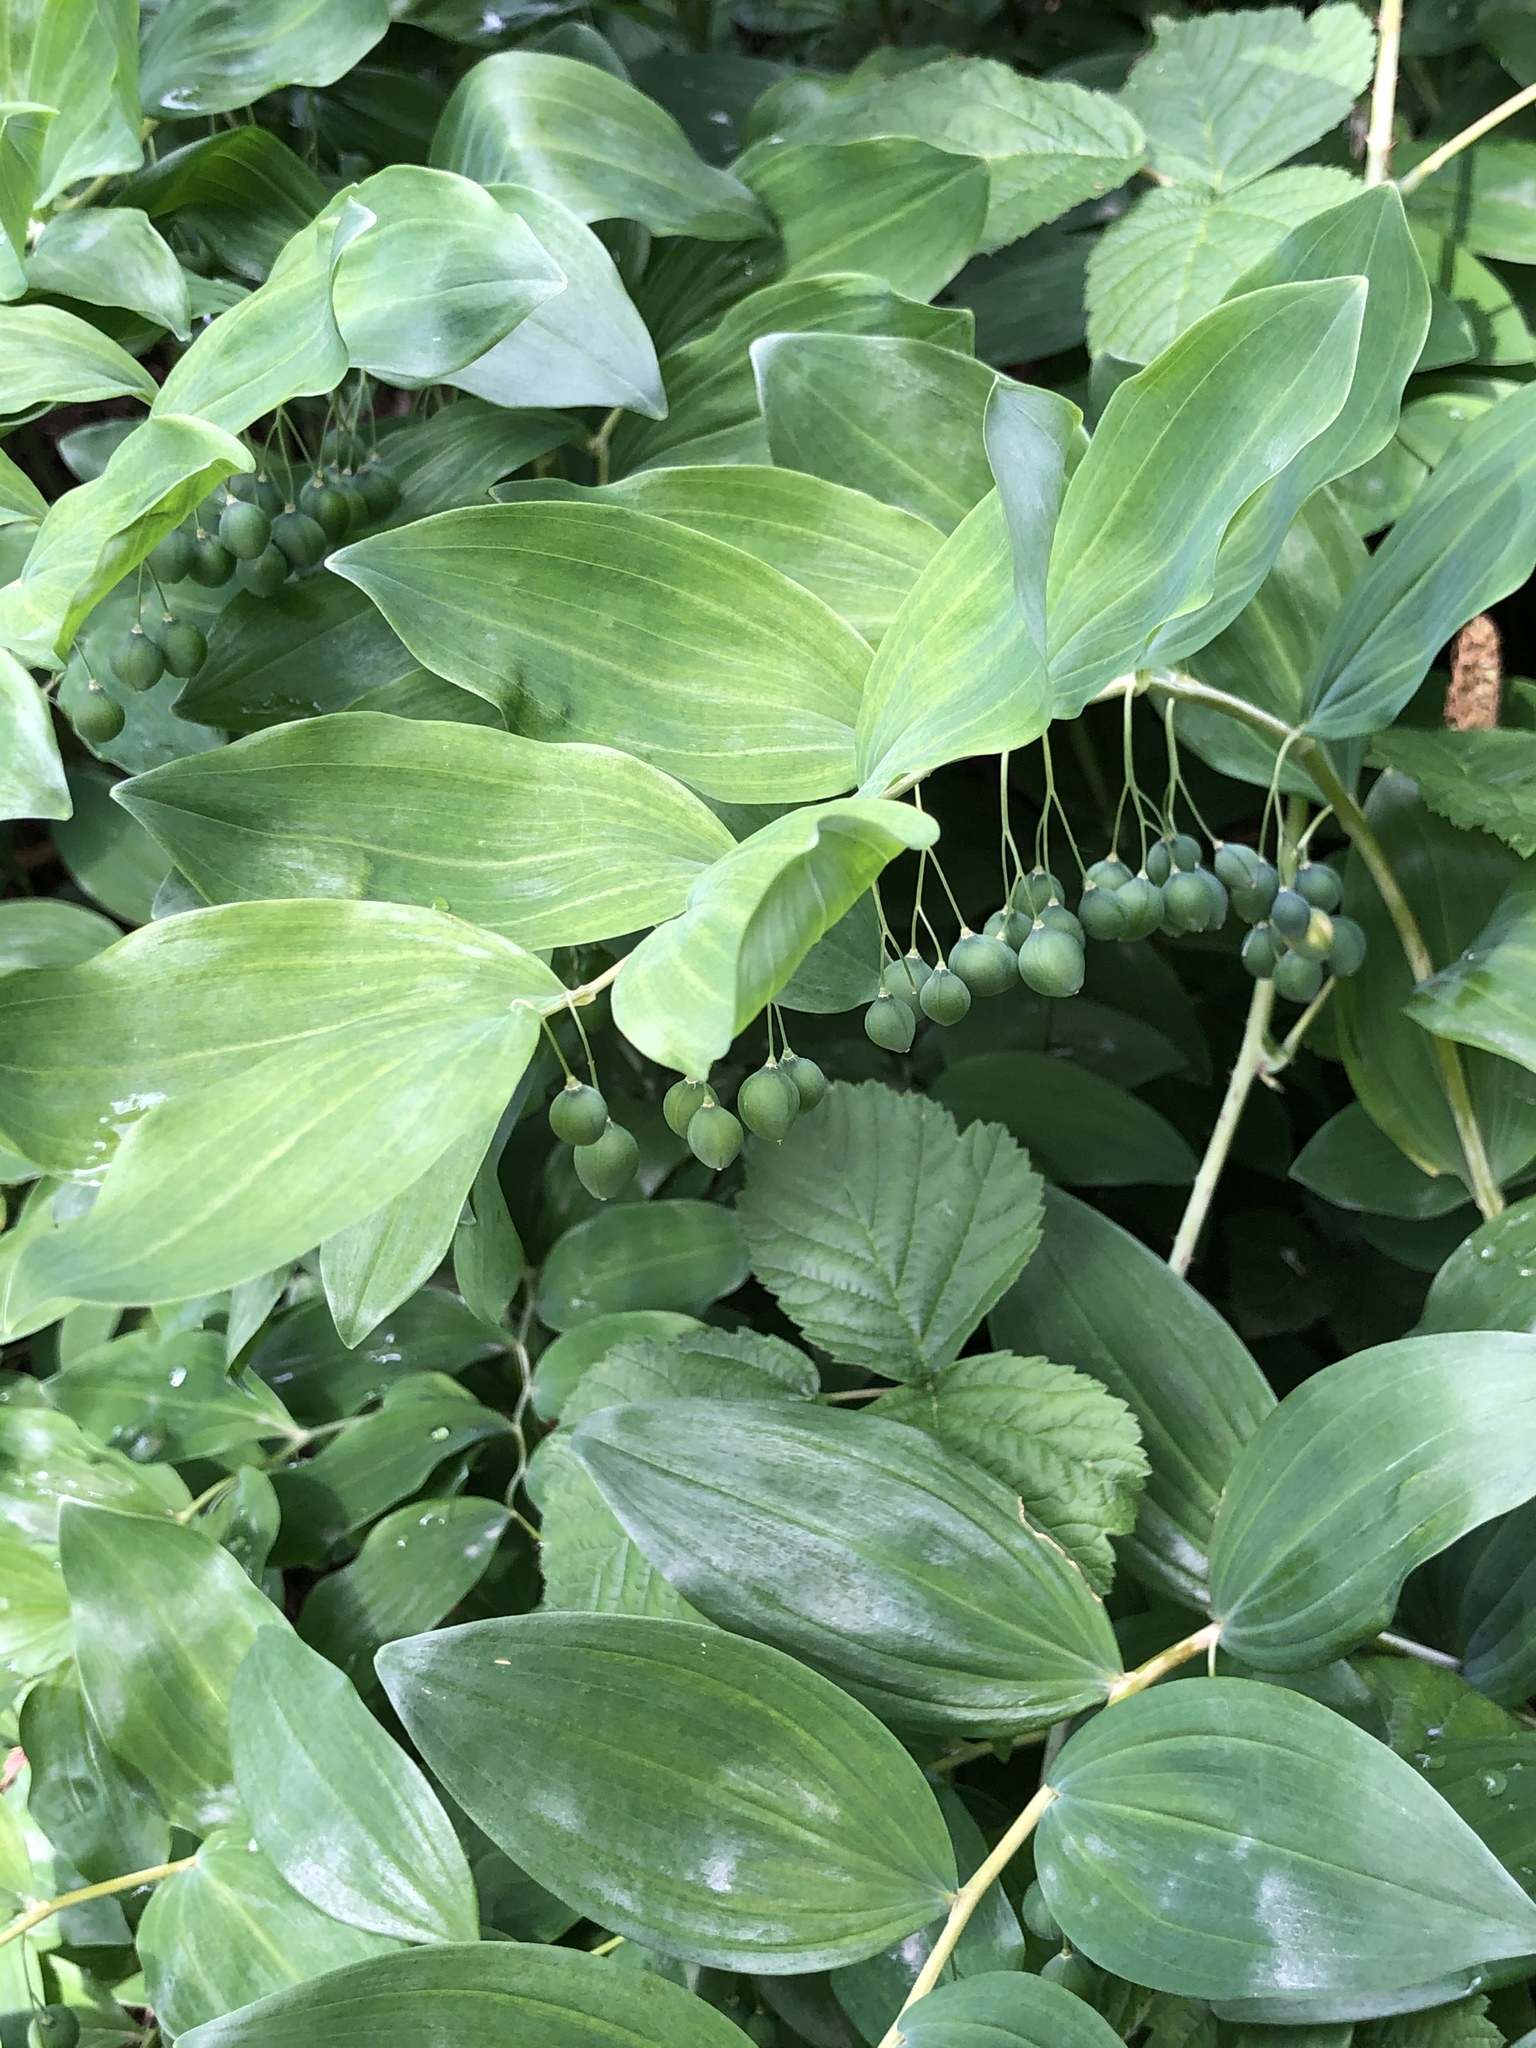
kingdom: Plantae
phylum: Tracheophyta
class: Liliopsida
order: Asparagales
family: Asparagaceae
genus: Polygonatum
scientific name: Polygonatum multiflorum
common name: Solomon's-seal
